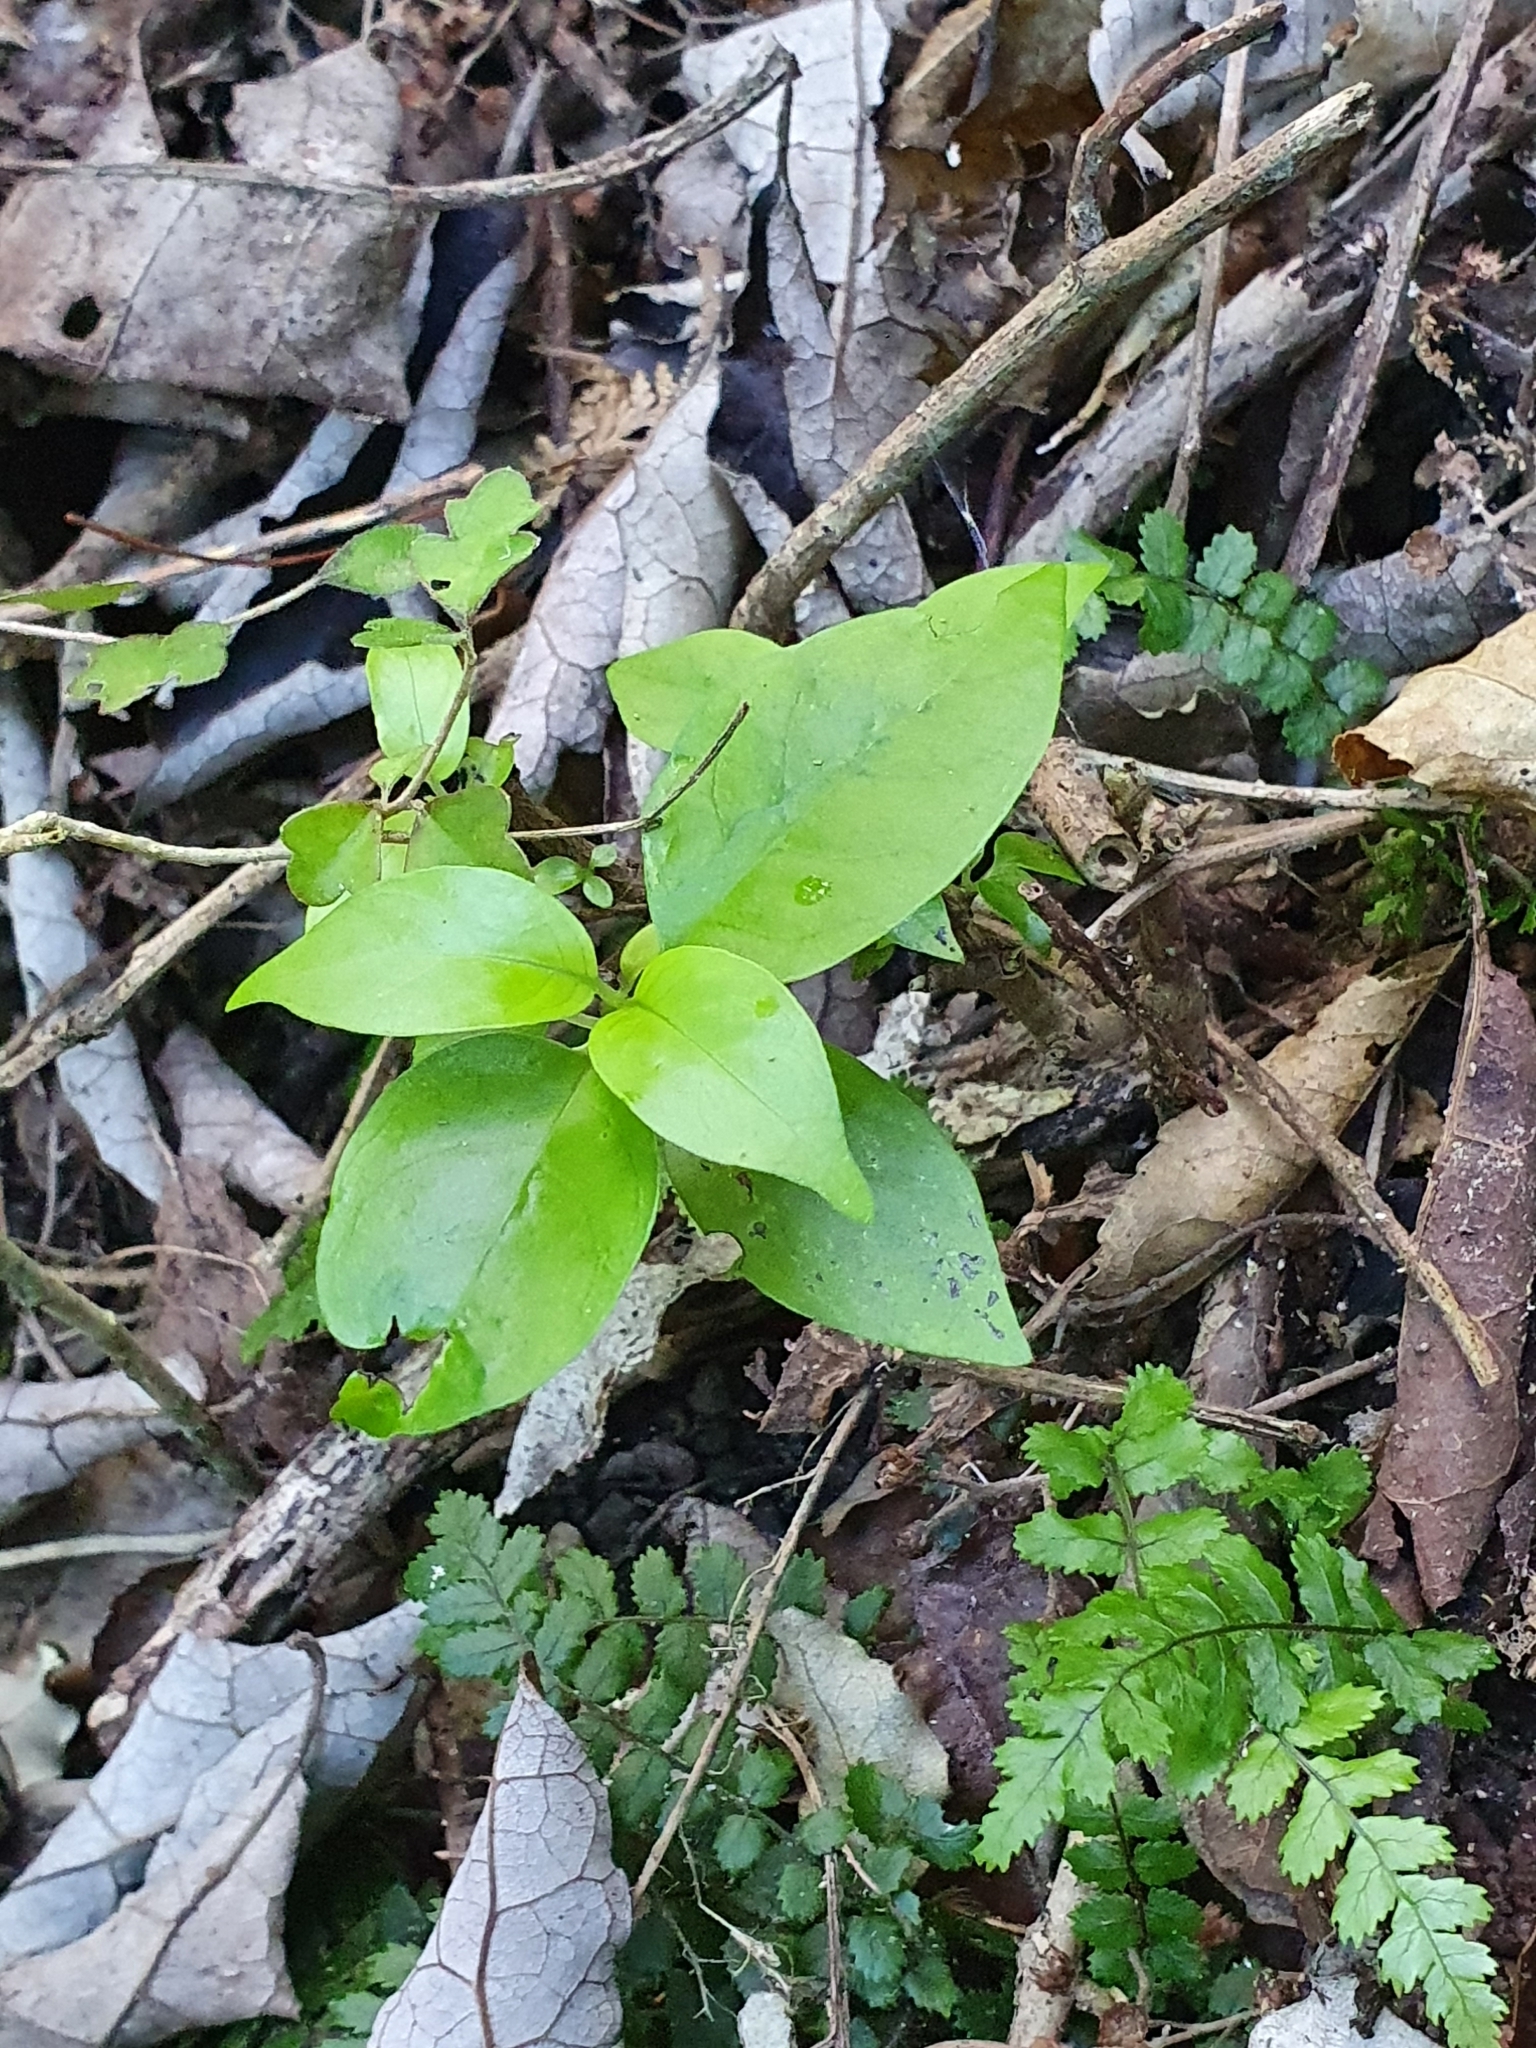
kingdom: Plantae
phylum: Tracheophyta
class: Magnoliopsida
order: Gentianales
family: Loganiaceae
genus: Geniostoma
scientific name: Geniostoma ligustrifolium
